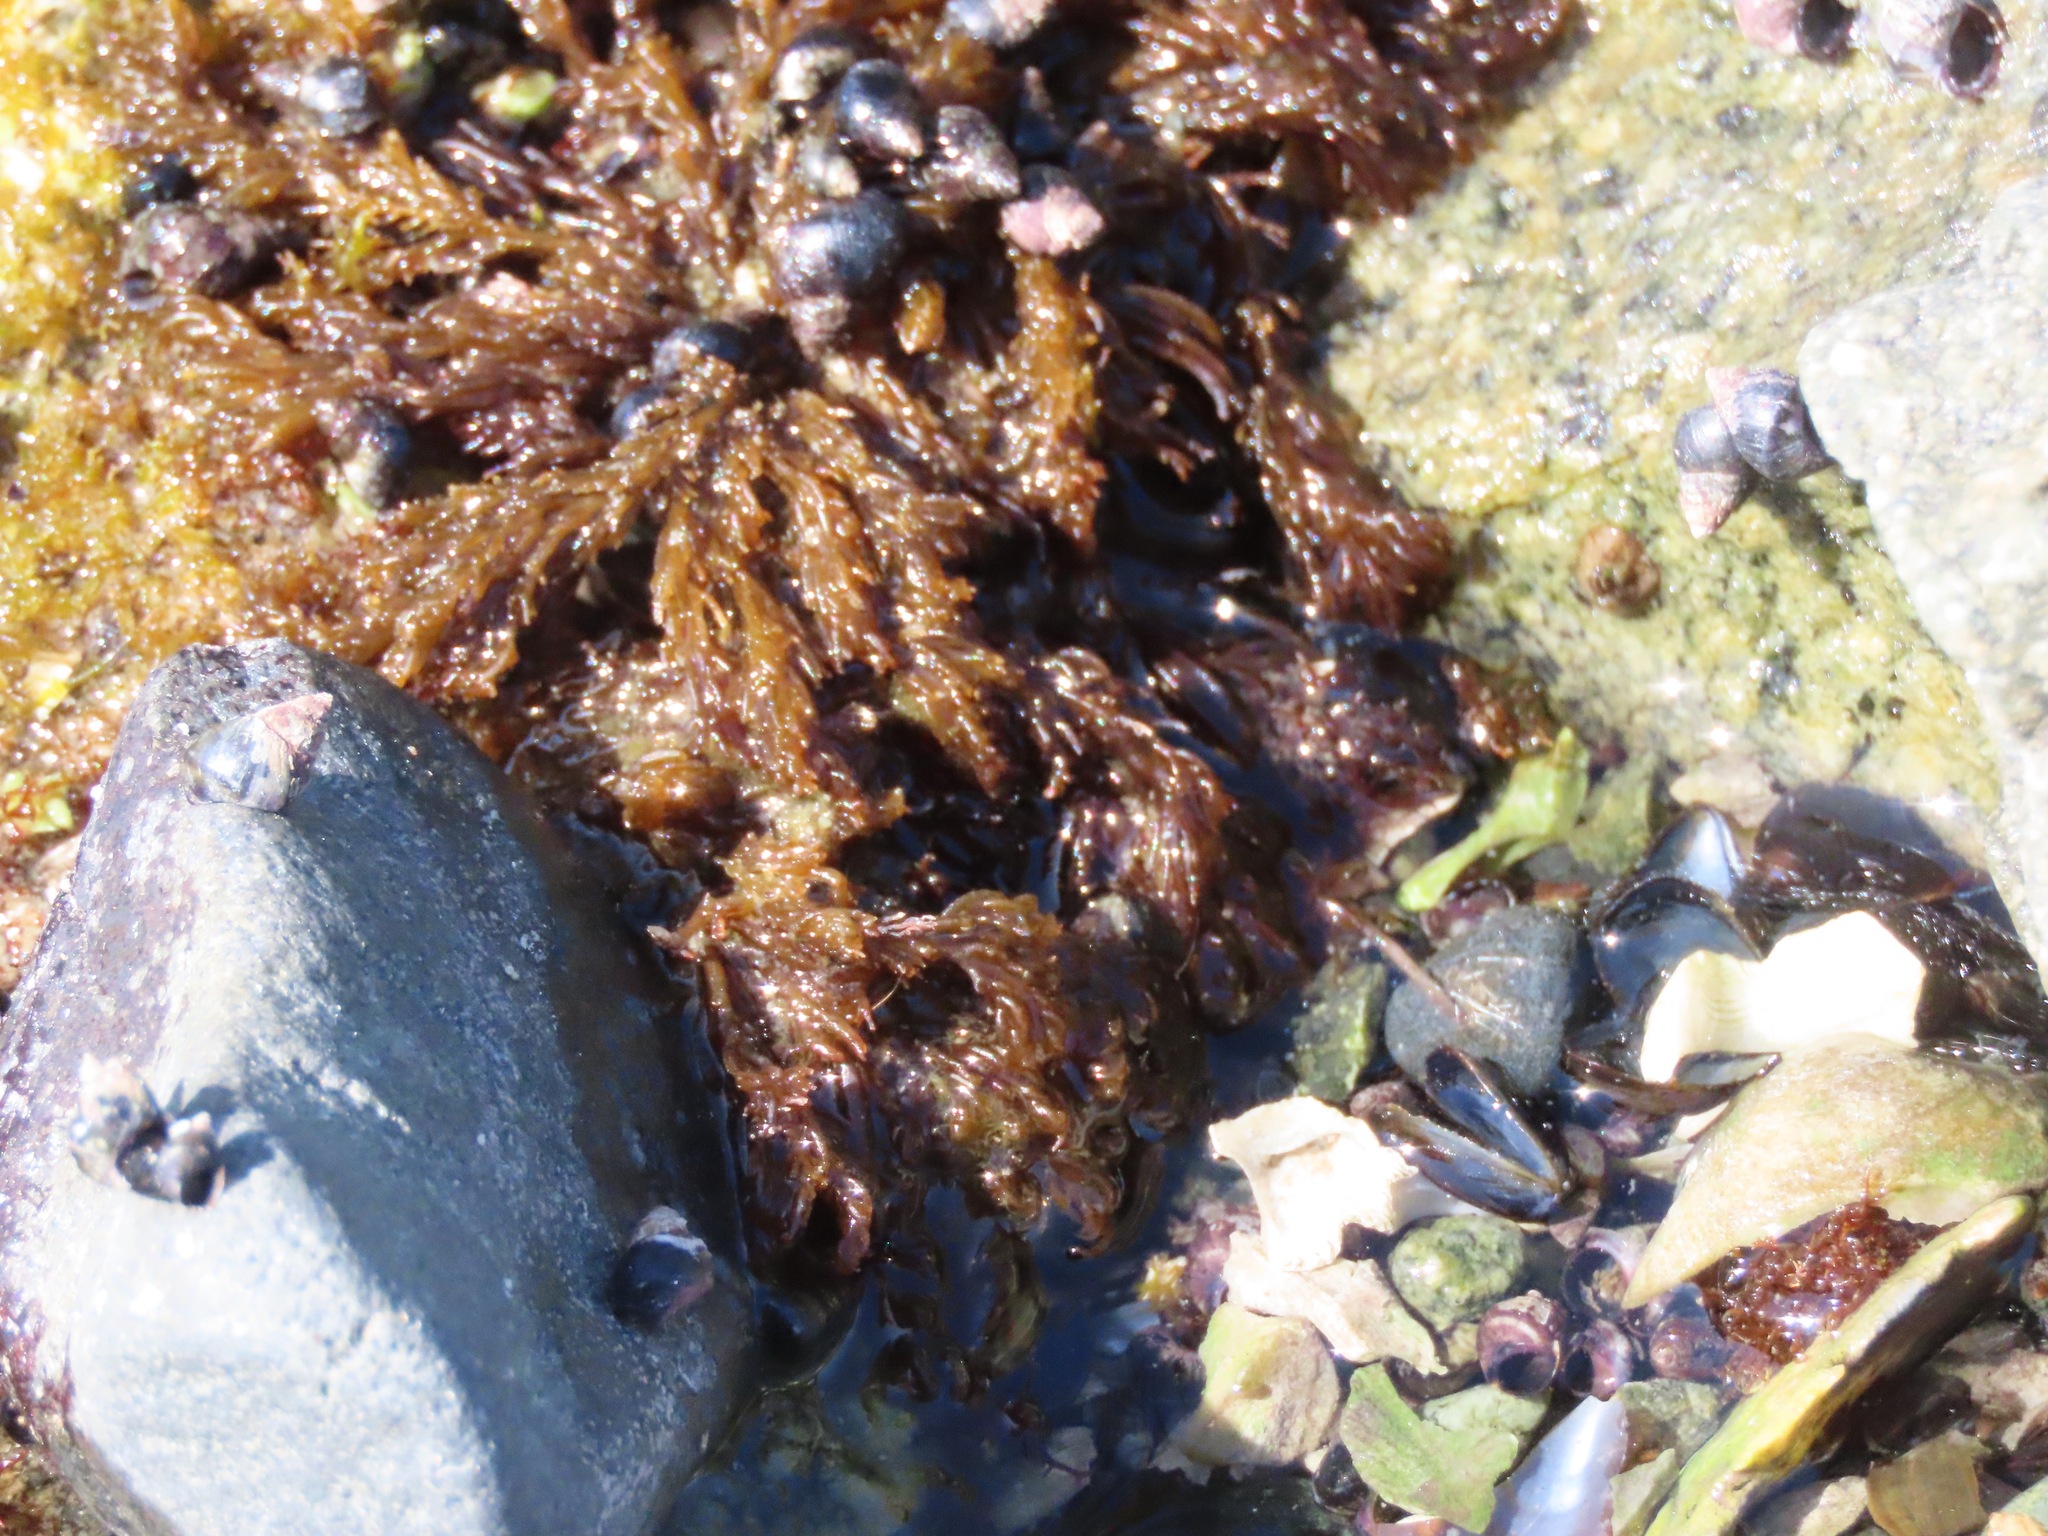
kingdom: Plantae
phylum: Rhodophyta
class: Florideophyceae
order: Ceramiales
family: Rhodomelaceae
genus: Neorhodomela
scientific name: Neorhodomela larix
